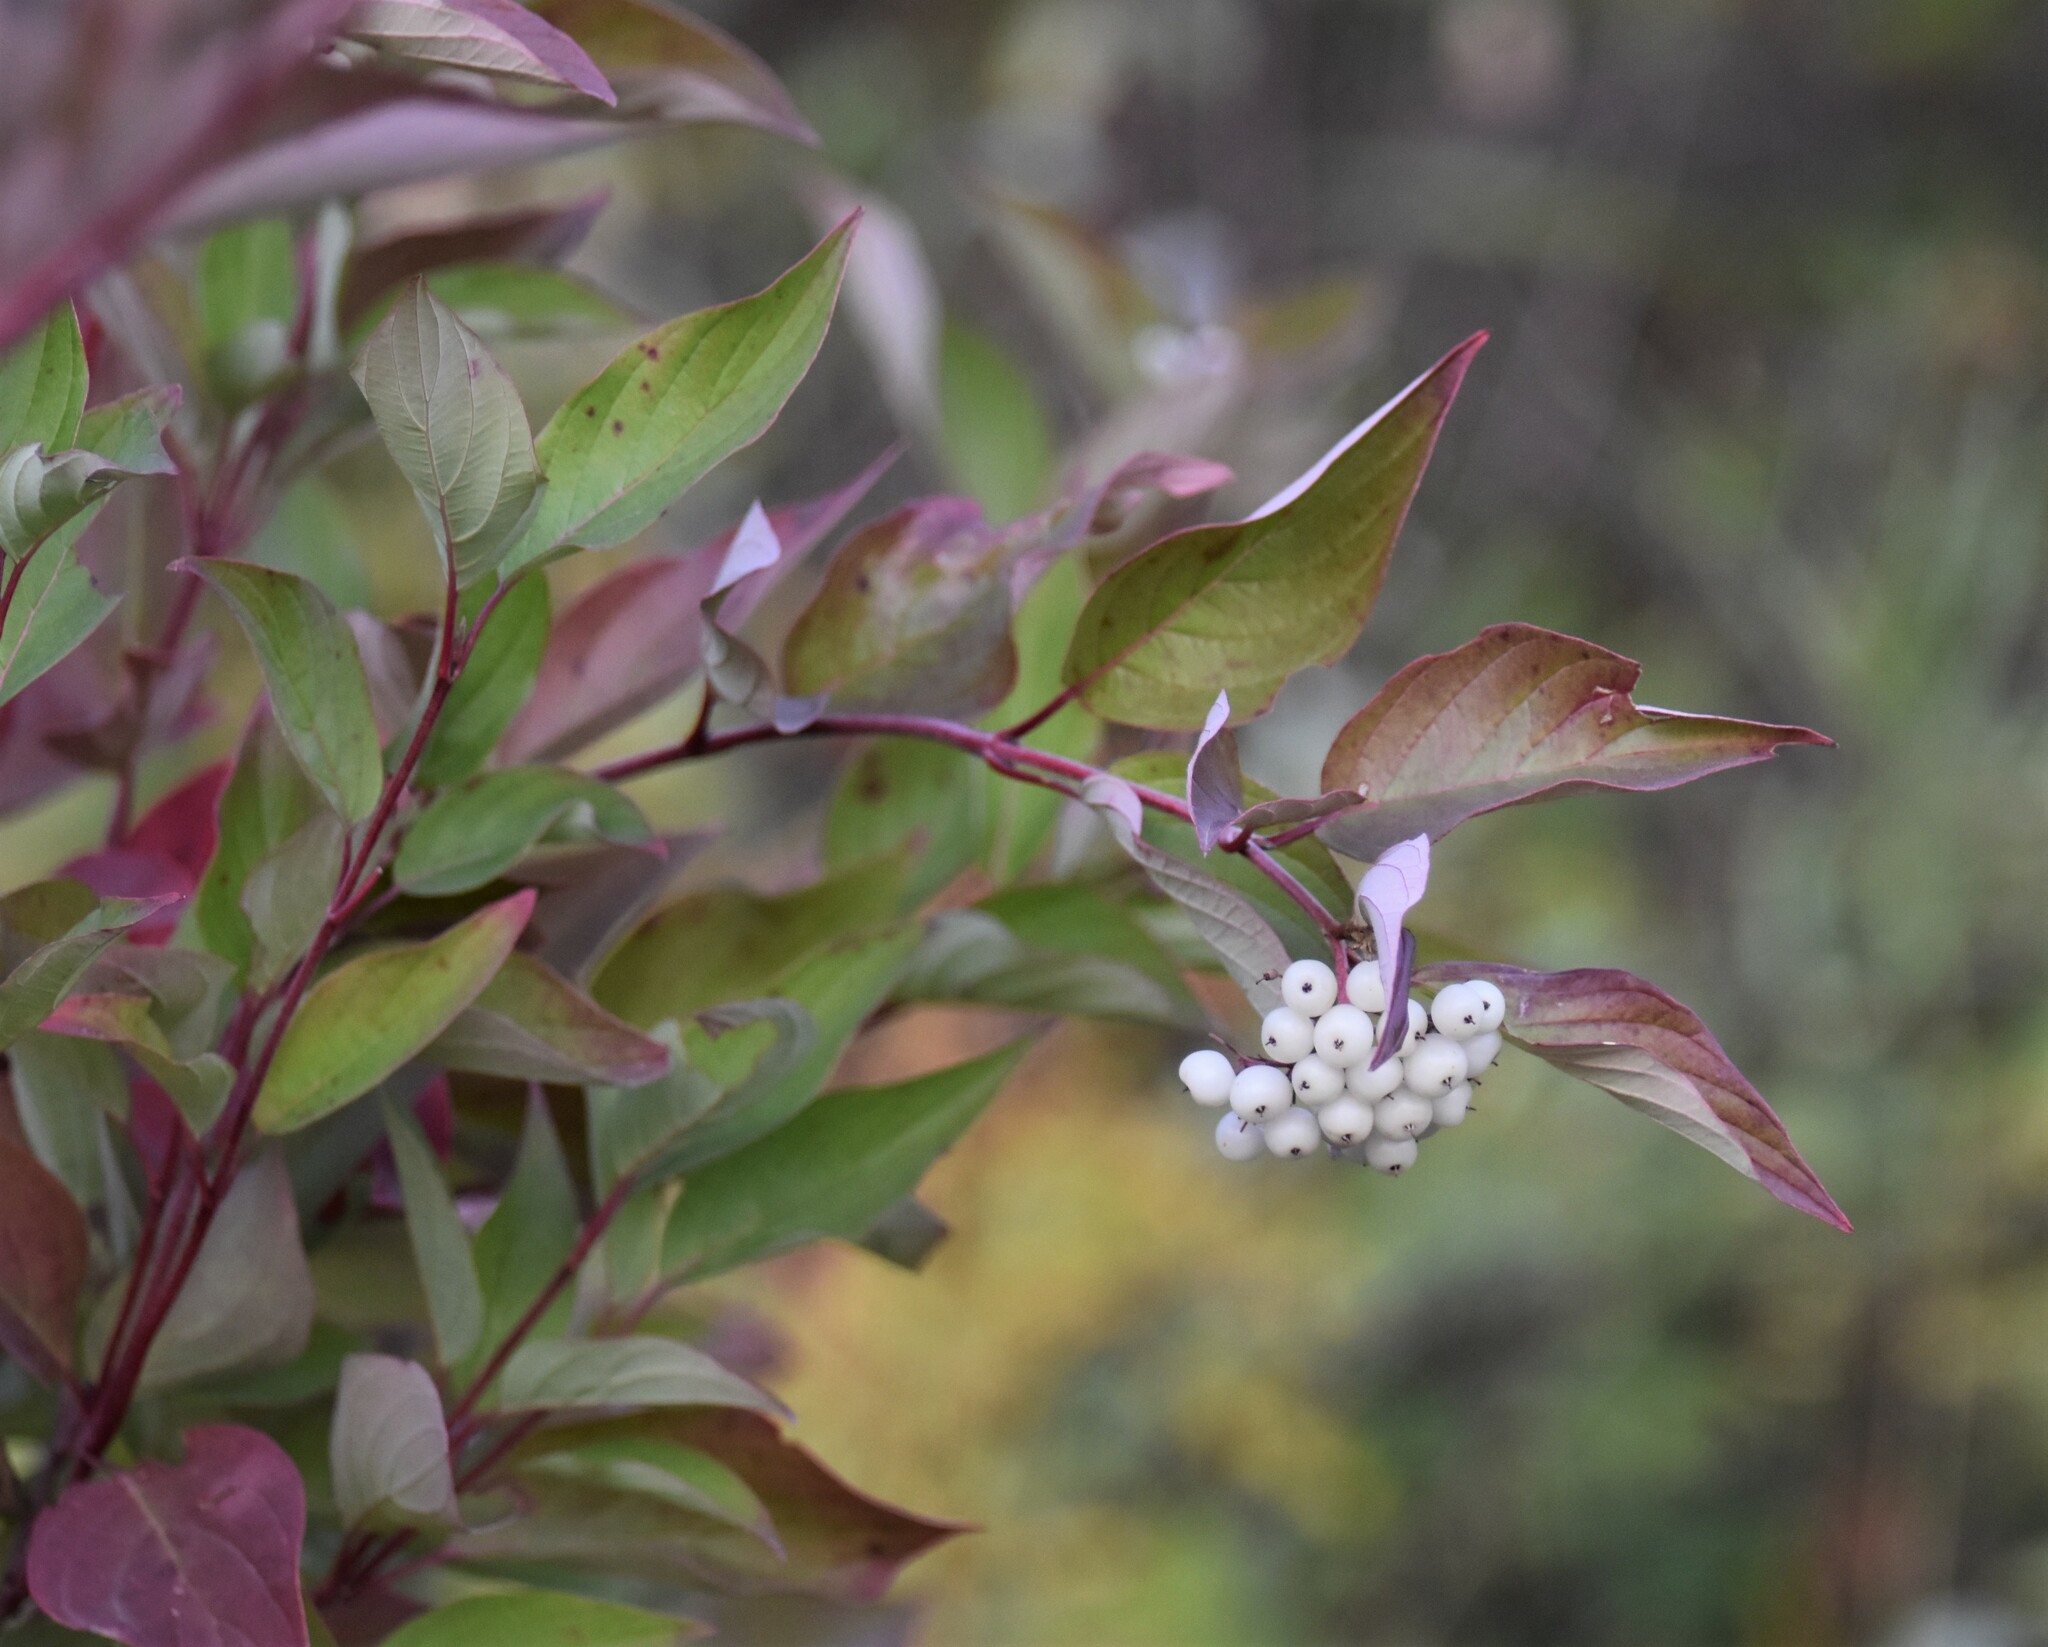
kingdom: Plantae
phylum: Tracheophyta
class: Magnoliopsida
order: Cornales
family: Cornaceae
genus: Cornus
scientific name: Cornus sericea
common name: Red-osier dogwood
